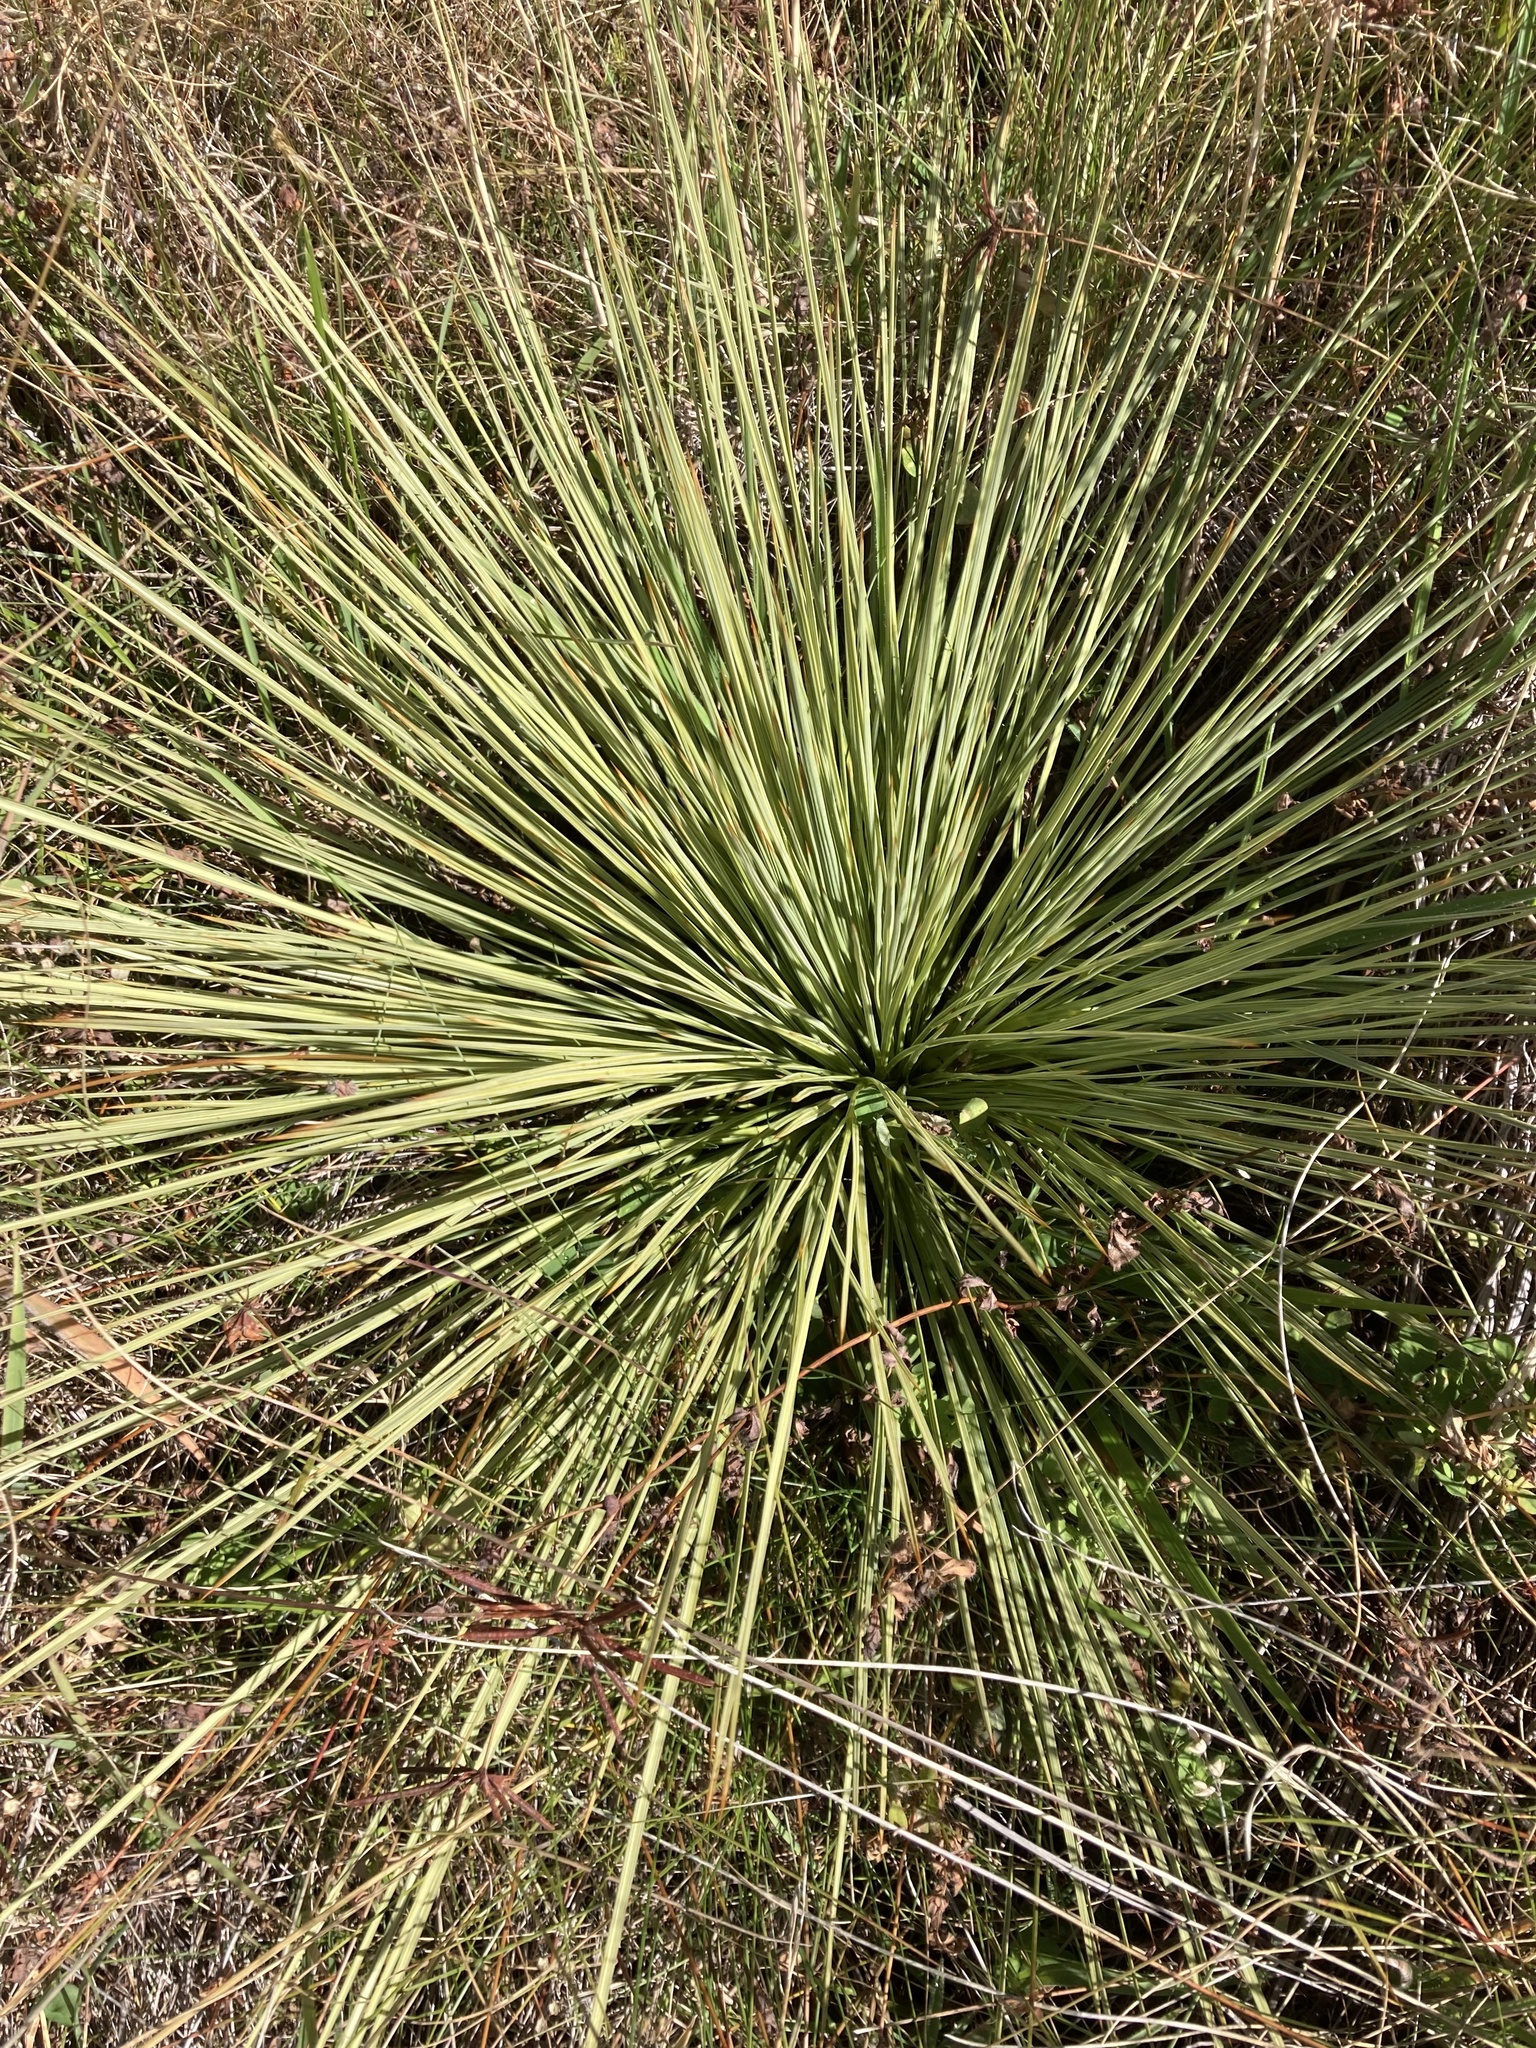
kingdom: Plantae
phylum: Tracheophyta
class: Magnoliopsida
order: Apiales
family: Apiaceae
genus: Aciphylla
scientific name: Aciphylla subflabellata
